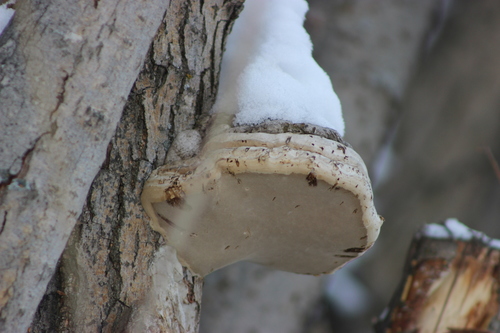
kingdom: Fungi
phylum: Basidiomycota
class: Agaricomycetes
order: Polyporales
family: Polyporaceae
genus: Fomes
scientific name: Fomes fomentarius
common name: Hoof fungus
